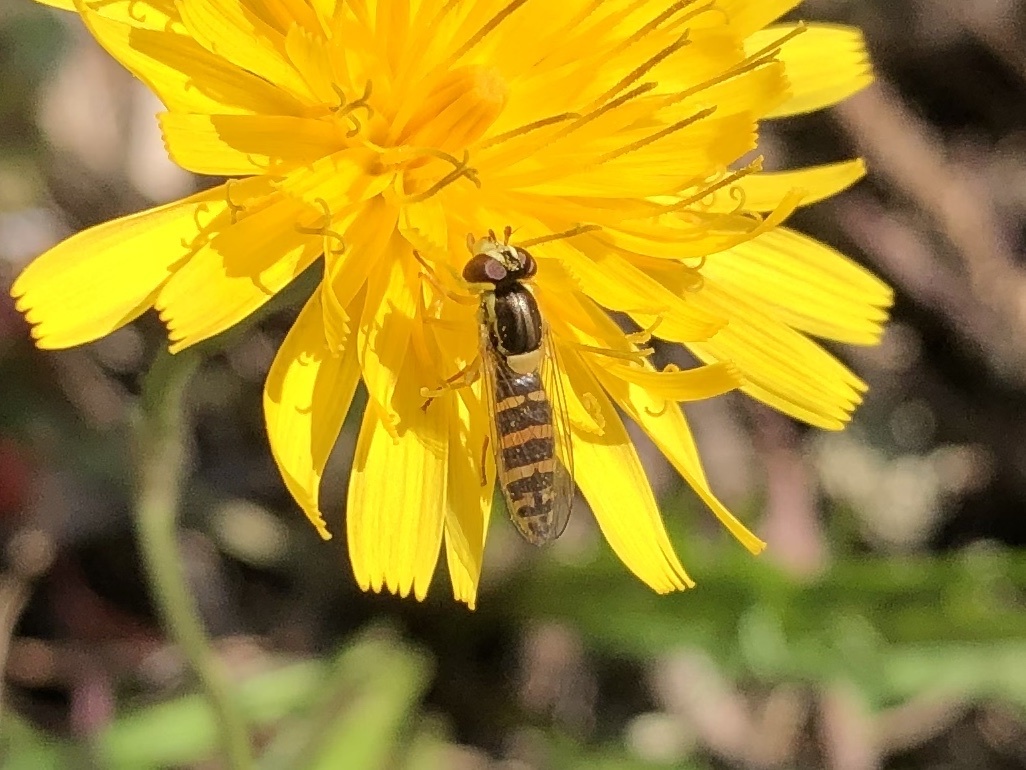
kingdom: Animalia
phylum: Arthropoda
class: Insecta
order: Diptera
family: Syrphidae
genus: Sphaerophoria
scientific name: Sphaerophoria
